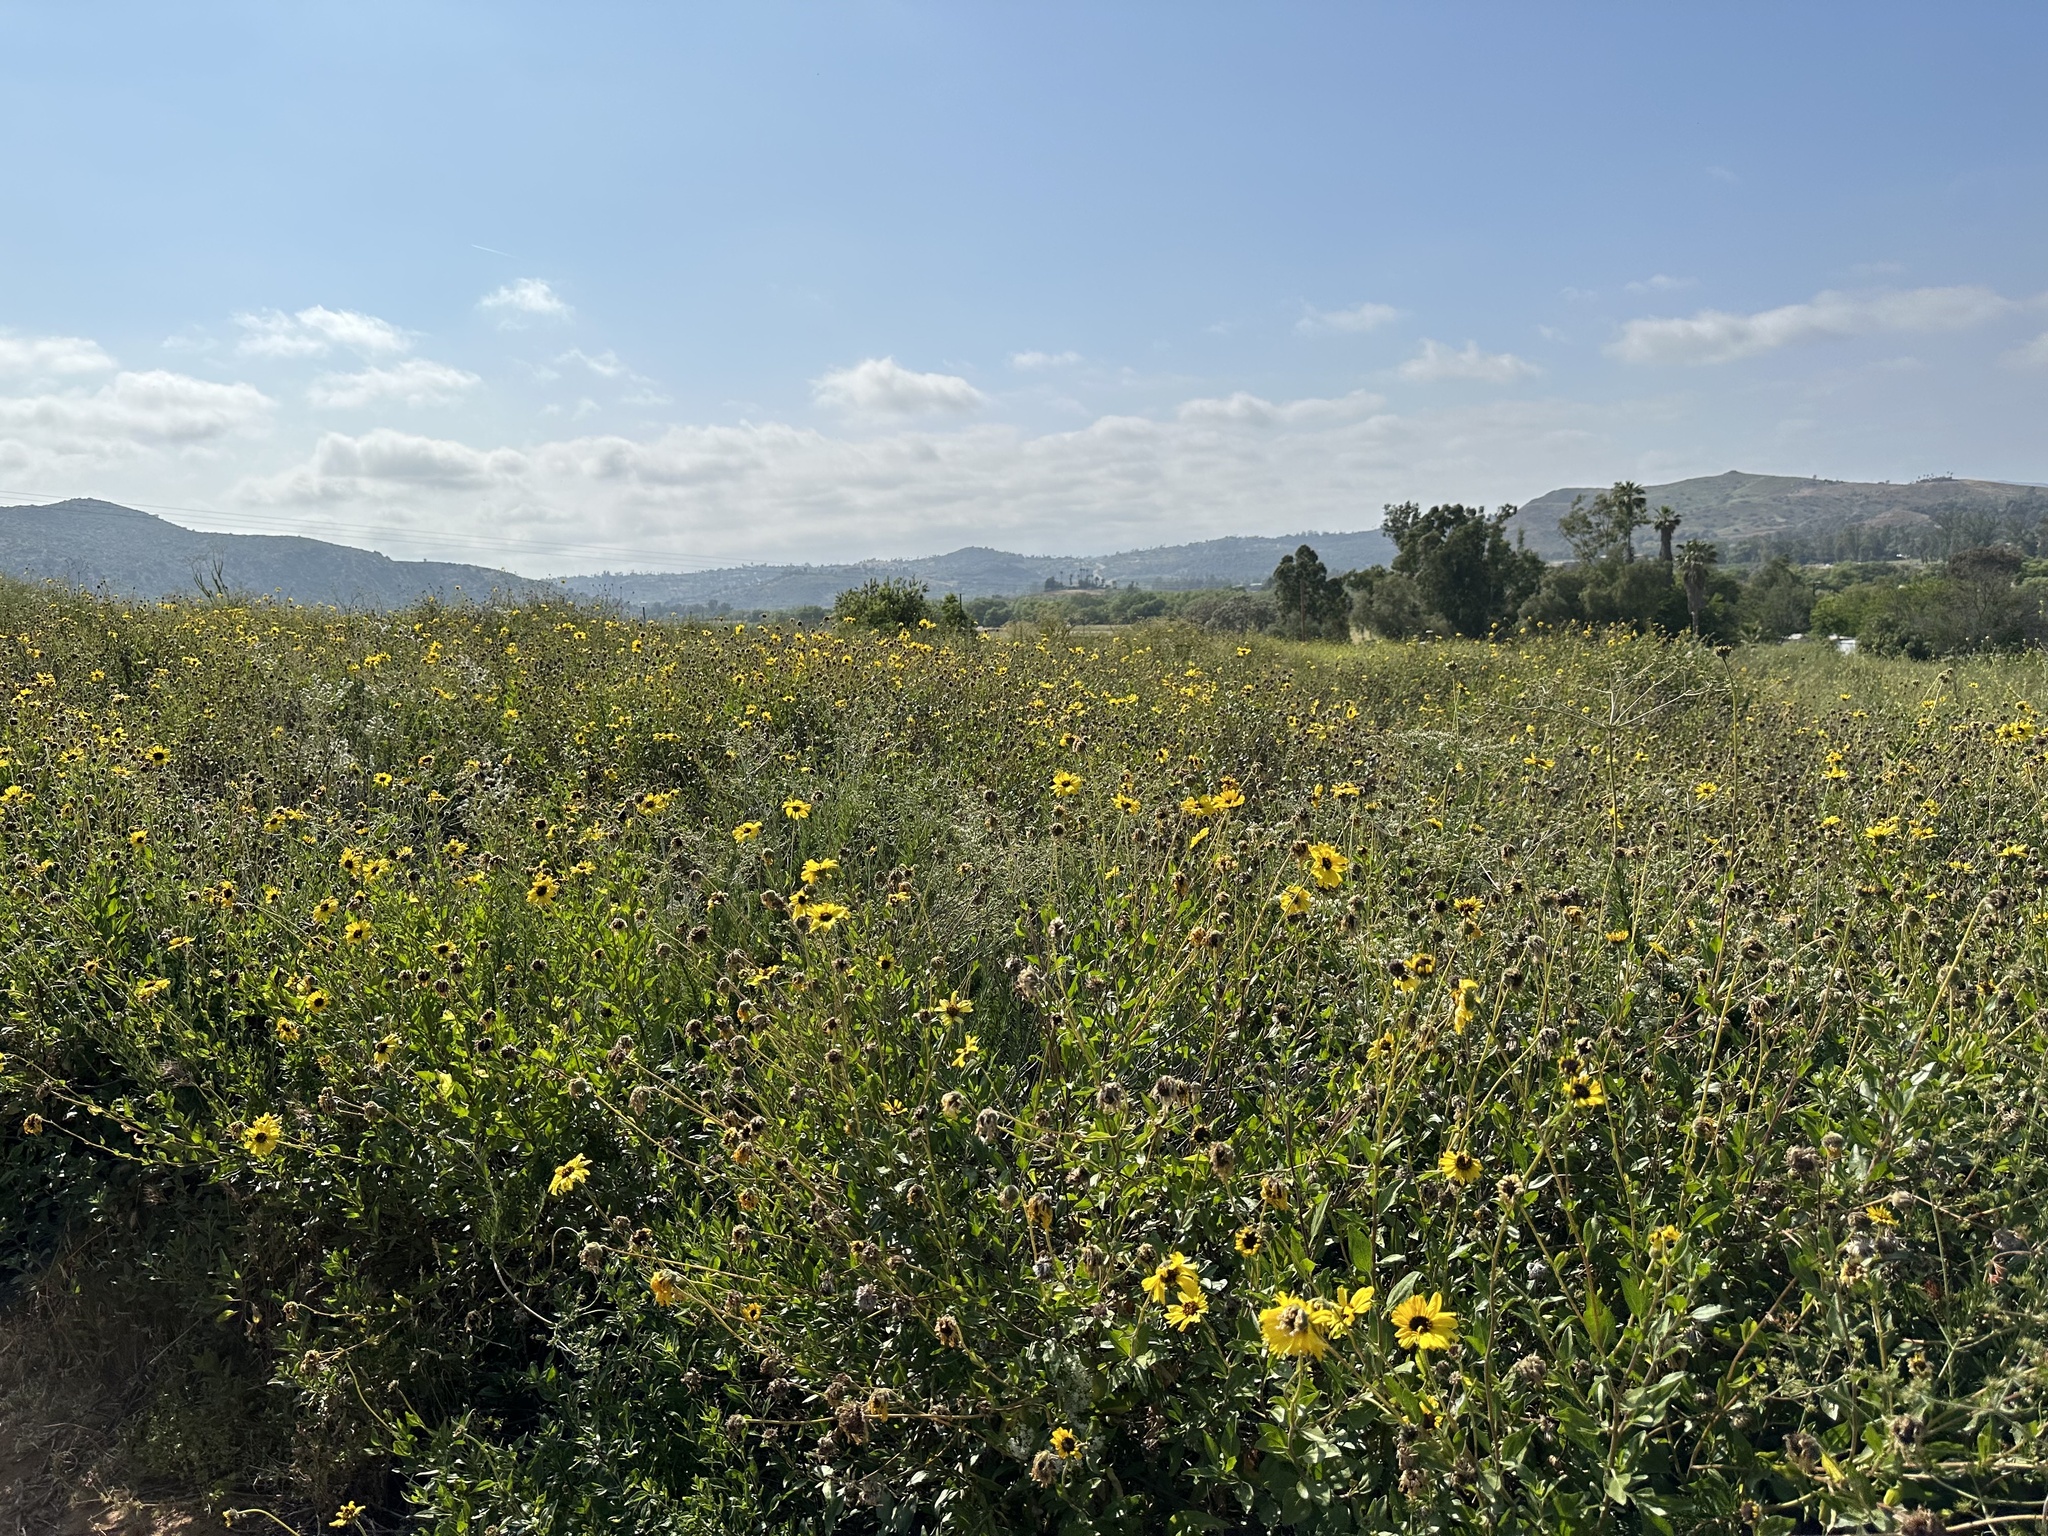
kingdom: Plantae
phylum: Tracheophyta
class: Magnoliopsida
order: Asterales
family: Asteraceae
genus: Encelia
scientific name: Encelia californica
